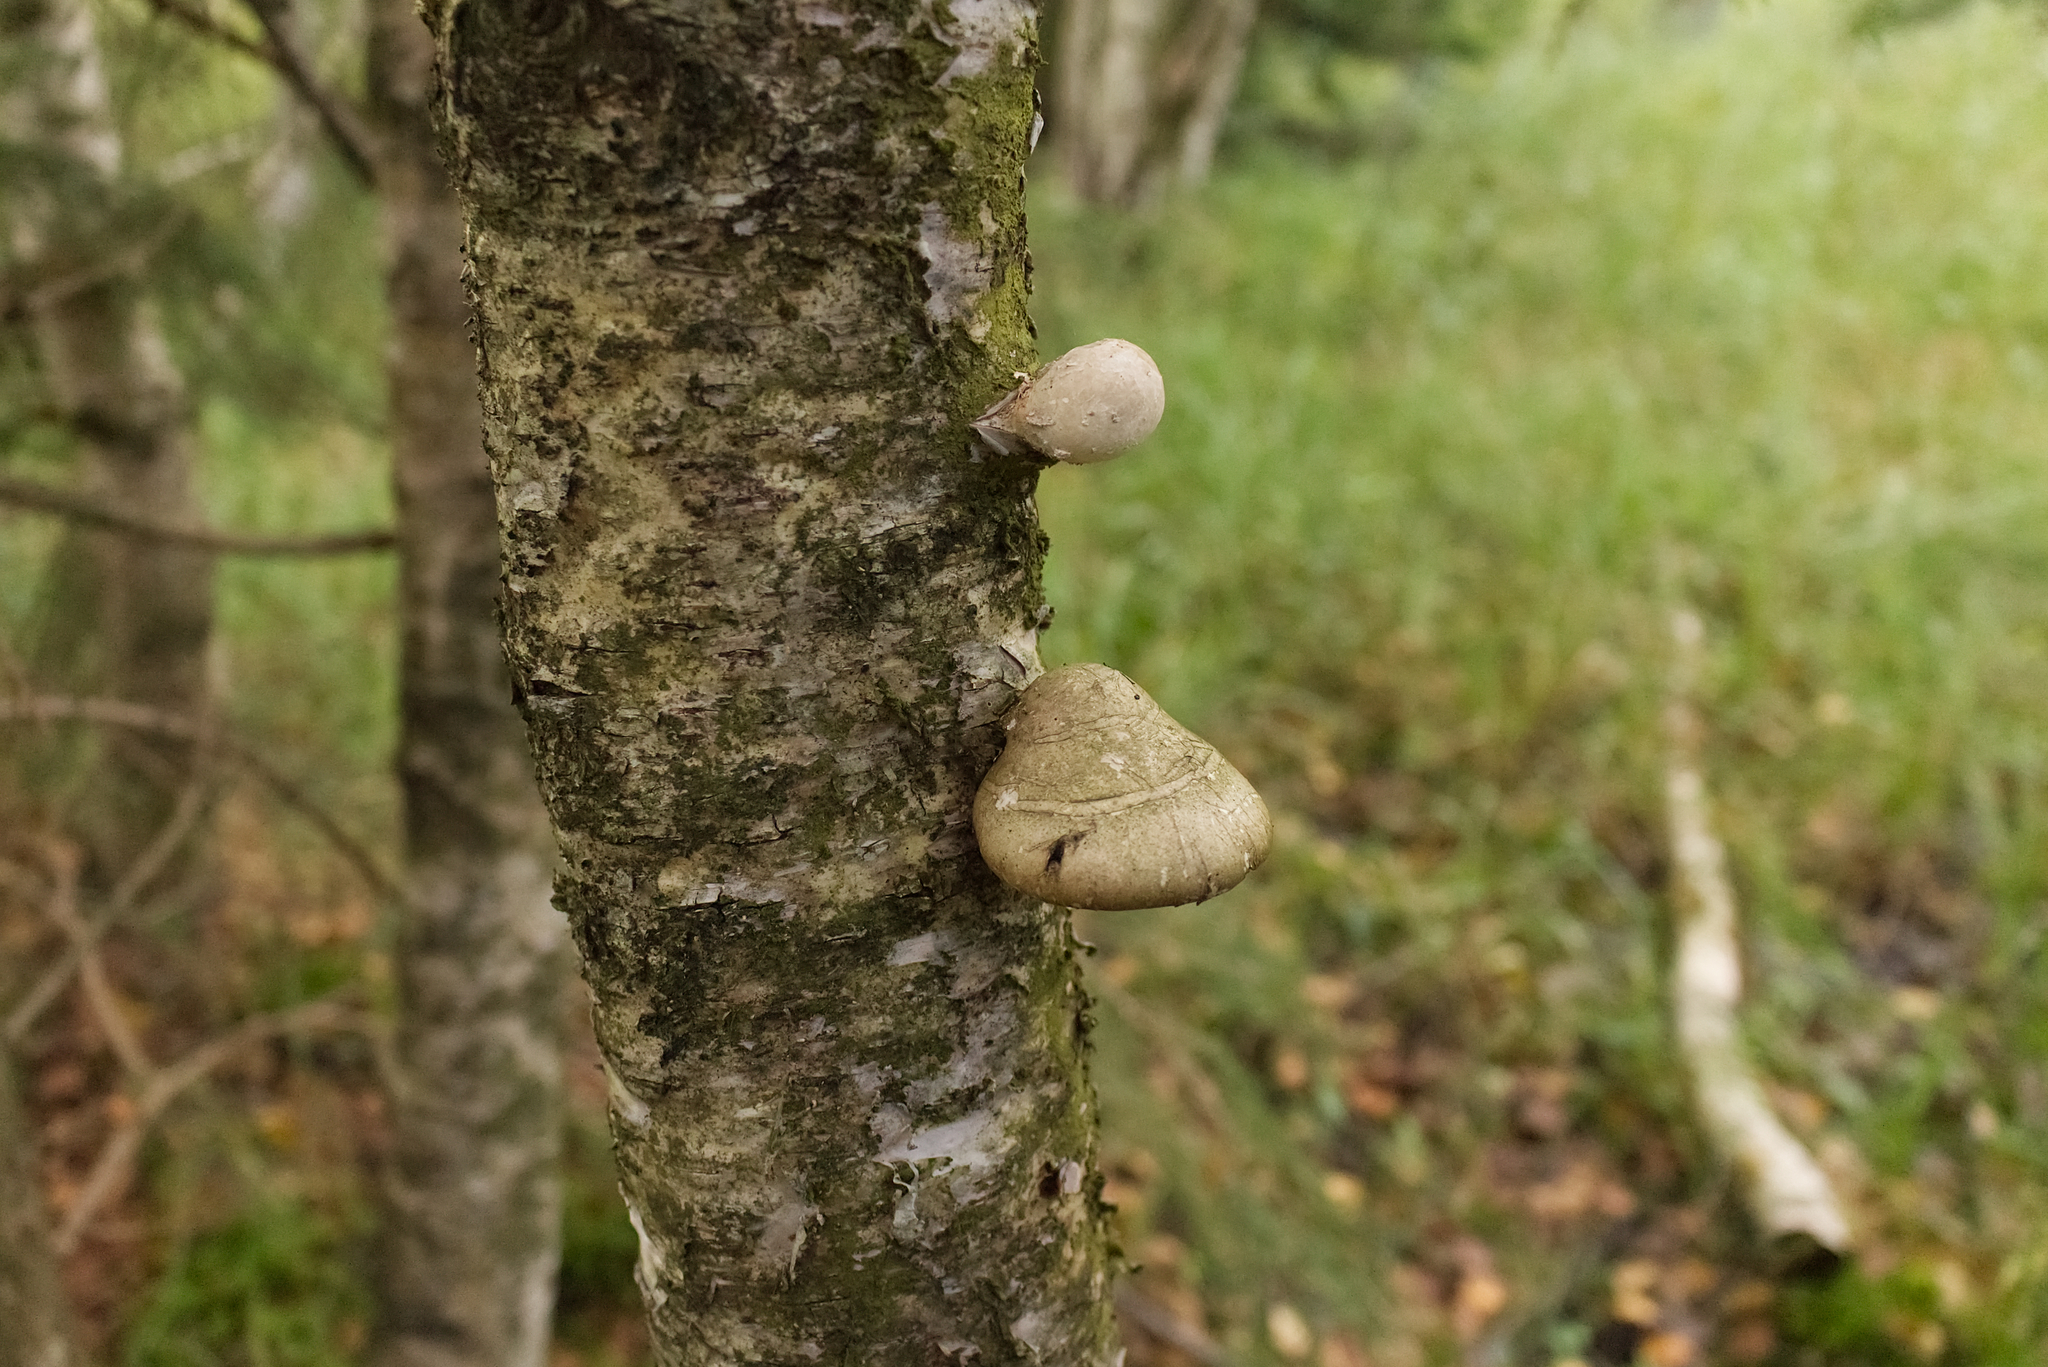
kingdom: Fungi
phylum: Basidiomycota
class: Agaricomycetes
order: Polyporales
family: Fomitopsidaceae
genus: Fomitopsis
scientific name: Fomitopsis betulina
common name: Birch polypore
